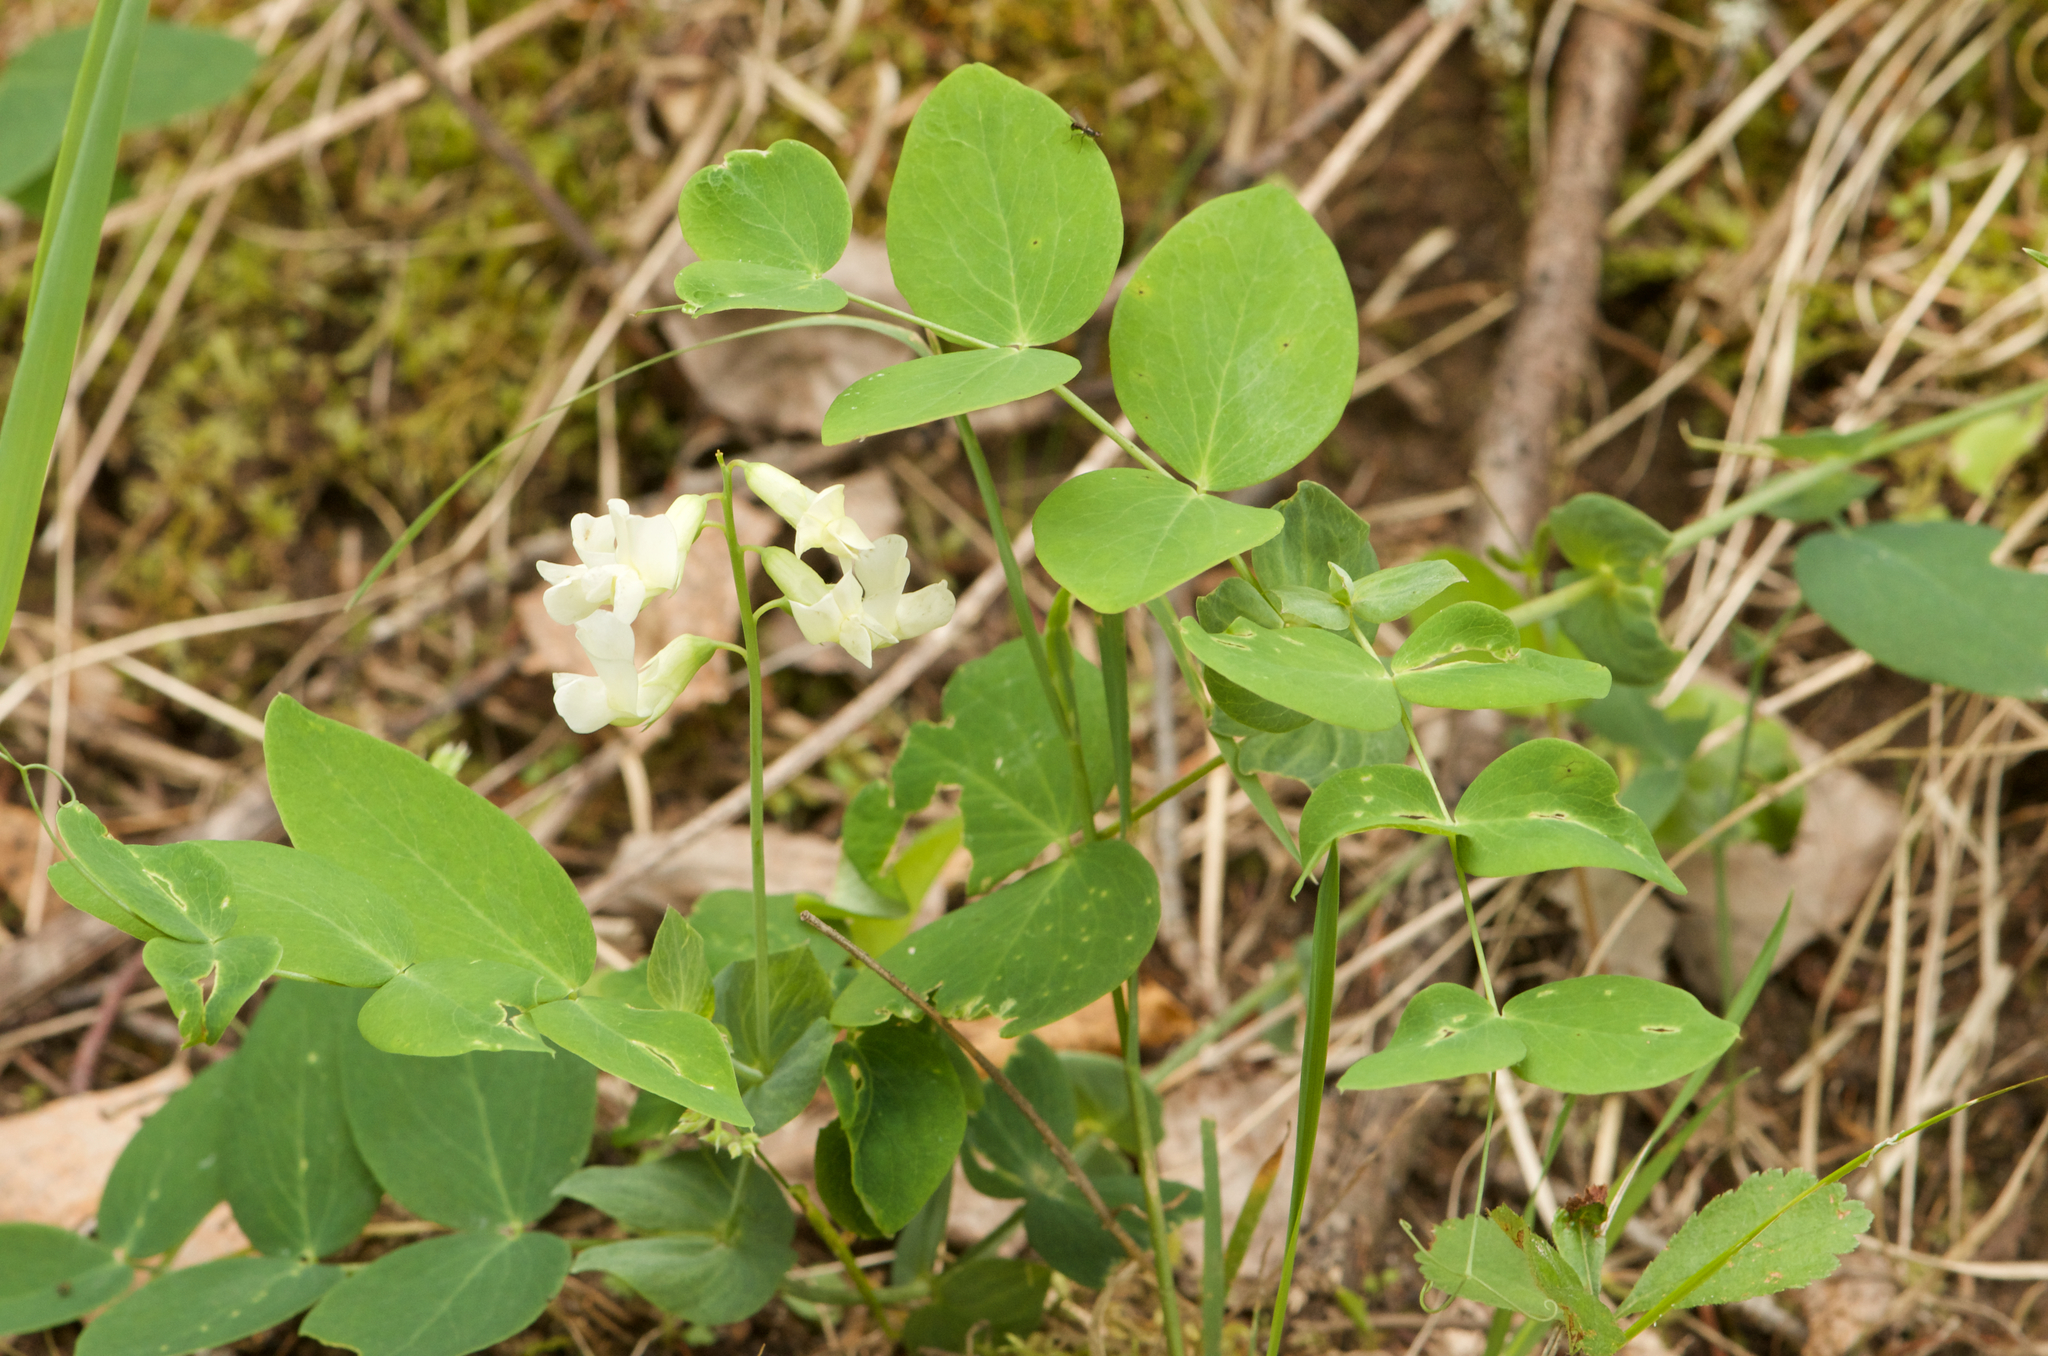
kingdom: Plantae
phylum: Tracheophyta
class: Magnoliopsida
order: Fabales
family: Fabaceae
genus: Lathyrus
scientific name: Lathyrus ochroleucus
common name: Pale vetchling
